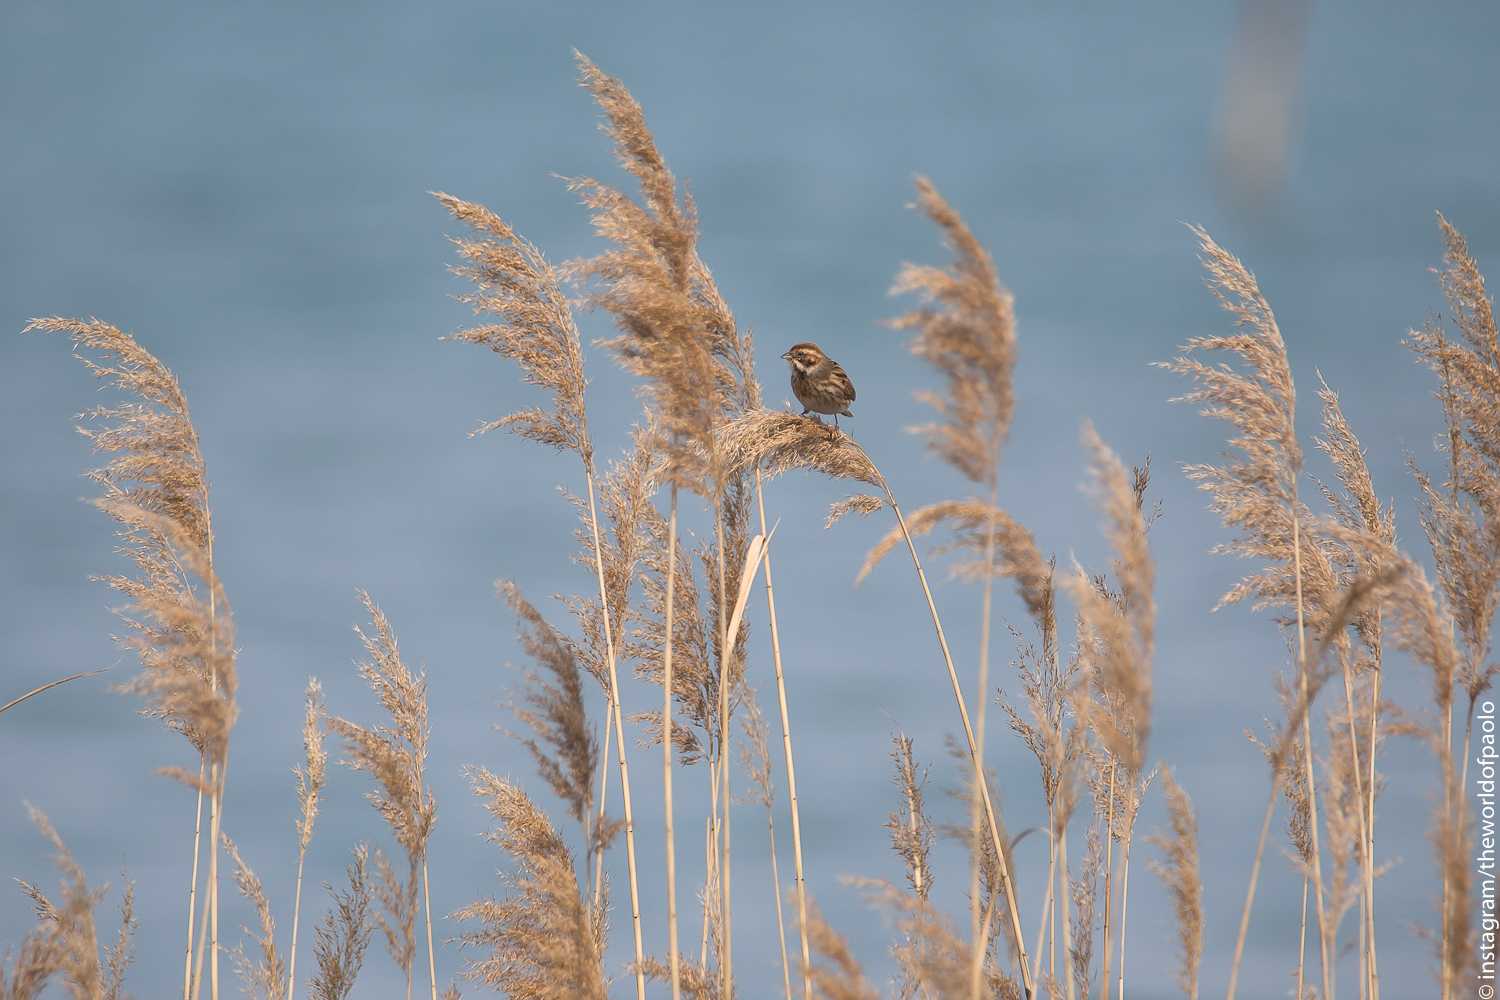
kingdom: Animalia
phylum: Chordata
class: Aves
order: Passeriformes
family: Emberizidae
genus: Emberiza
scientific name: Emberiza schoeniclus
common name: Reed bunting
